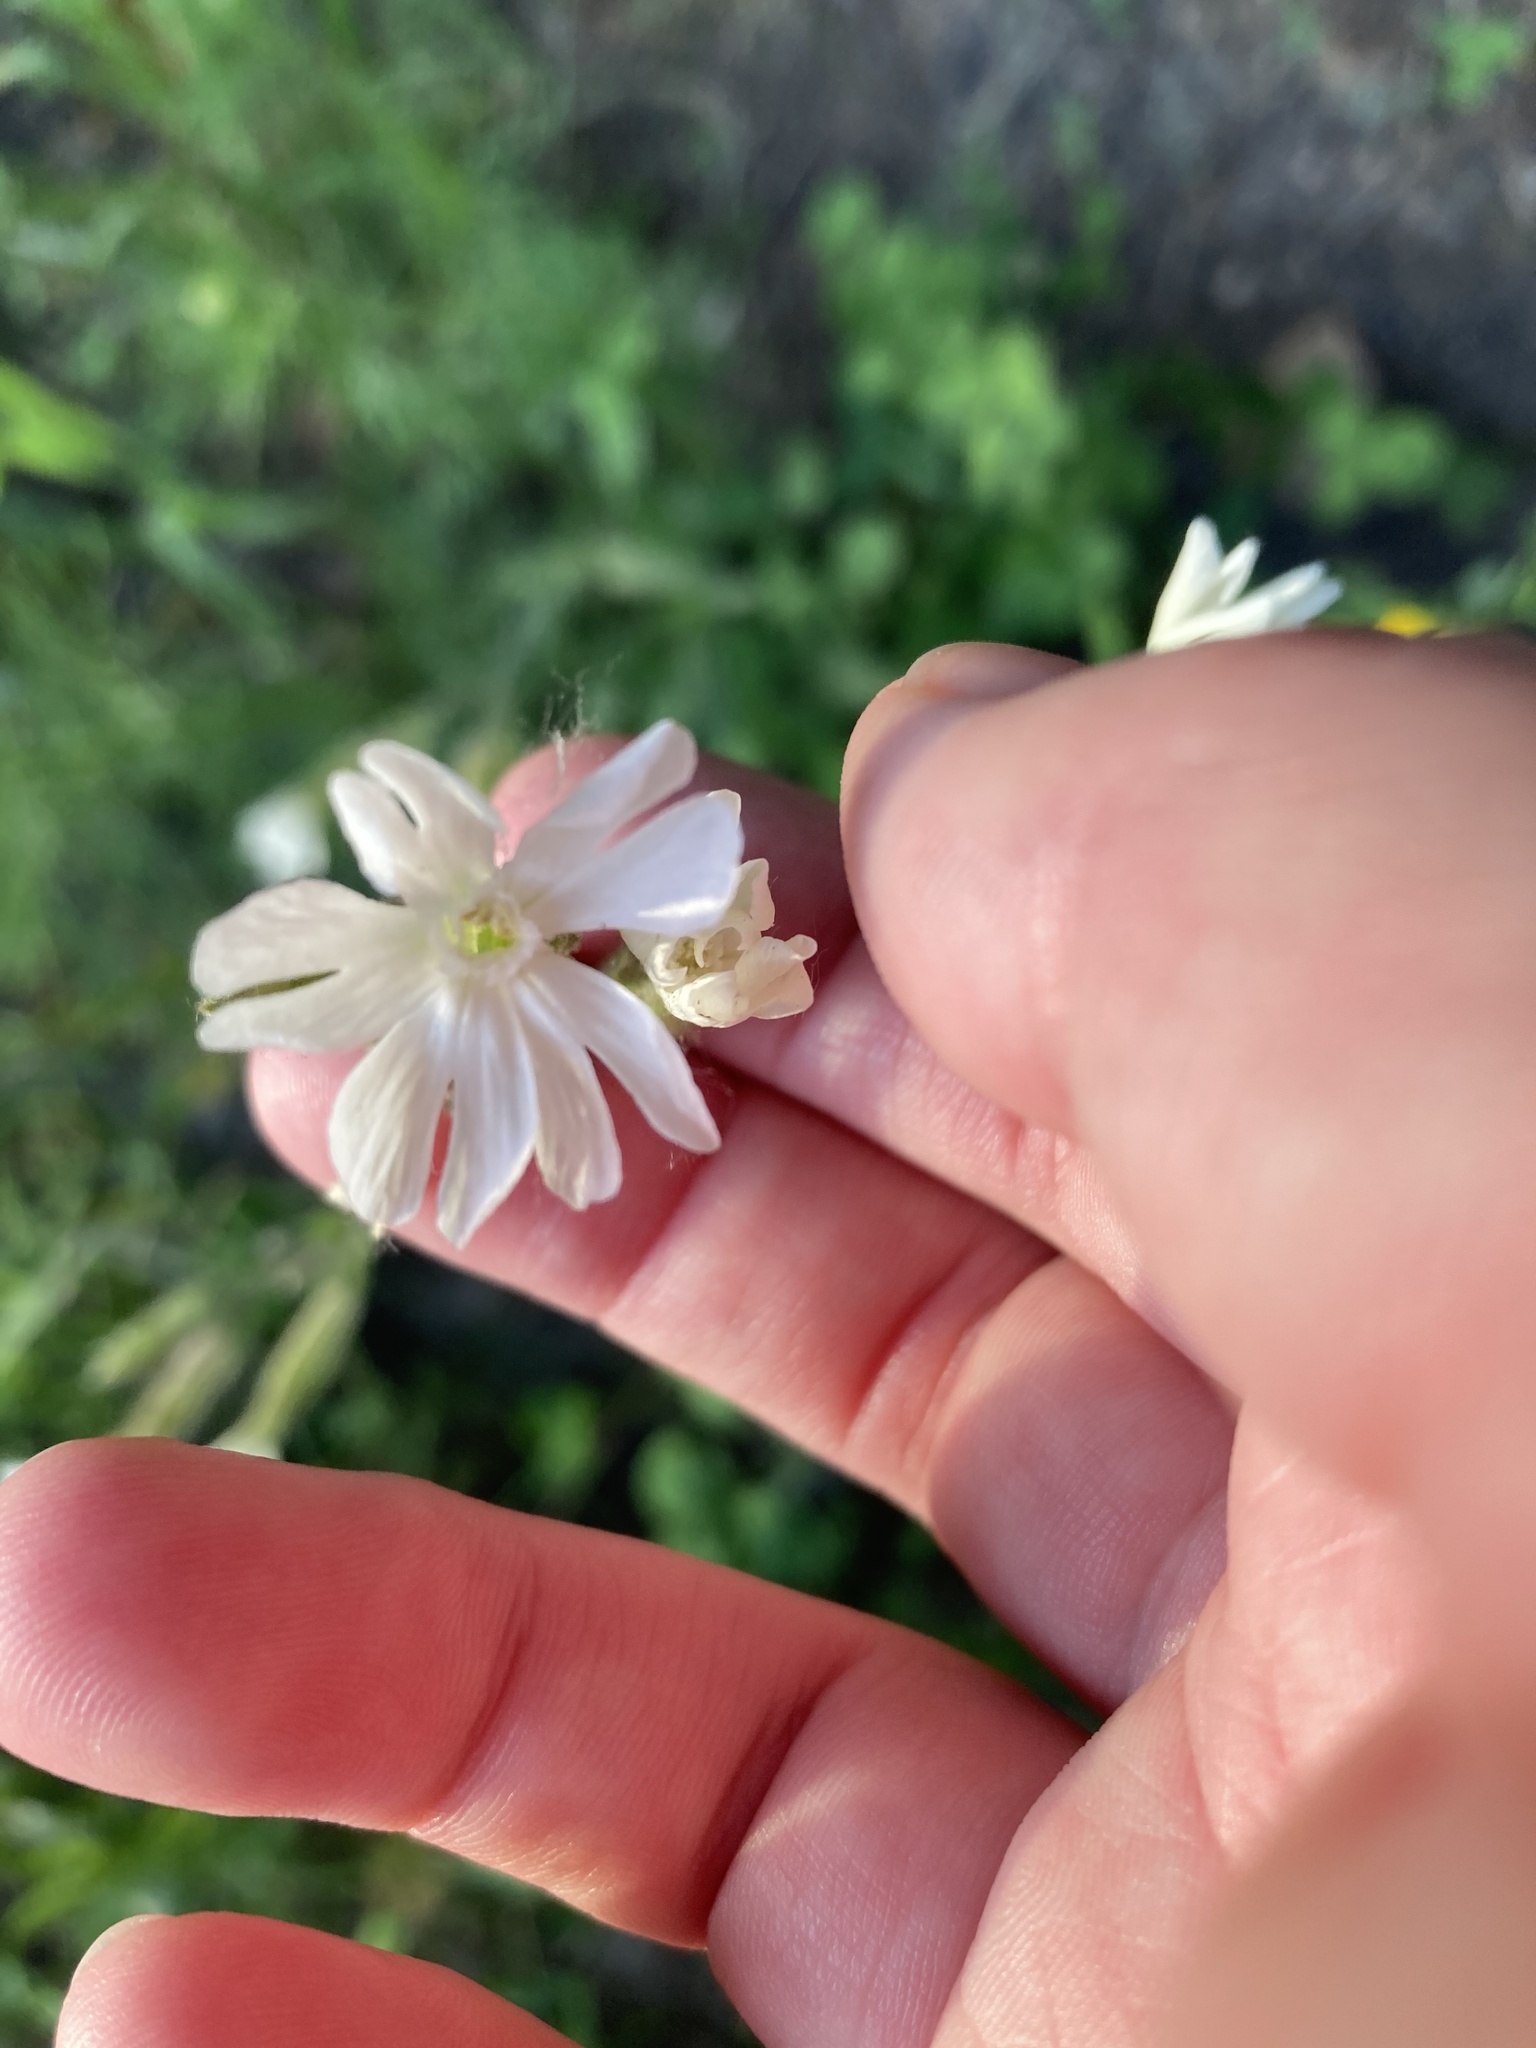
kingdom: Plantae
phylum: Tracheophyta
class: Magnoliopsida
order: Caryophyllales
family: Caryophyllaceae
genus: Silene
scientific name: Silene latifolia
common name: White campion
